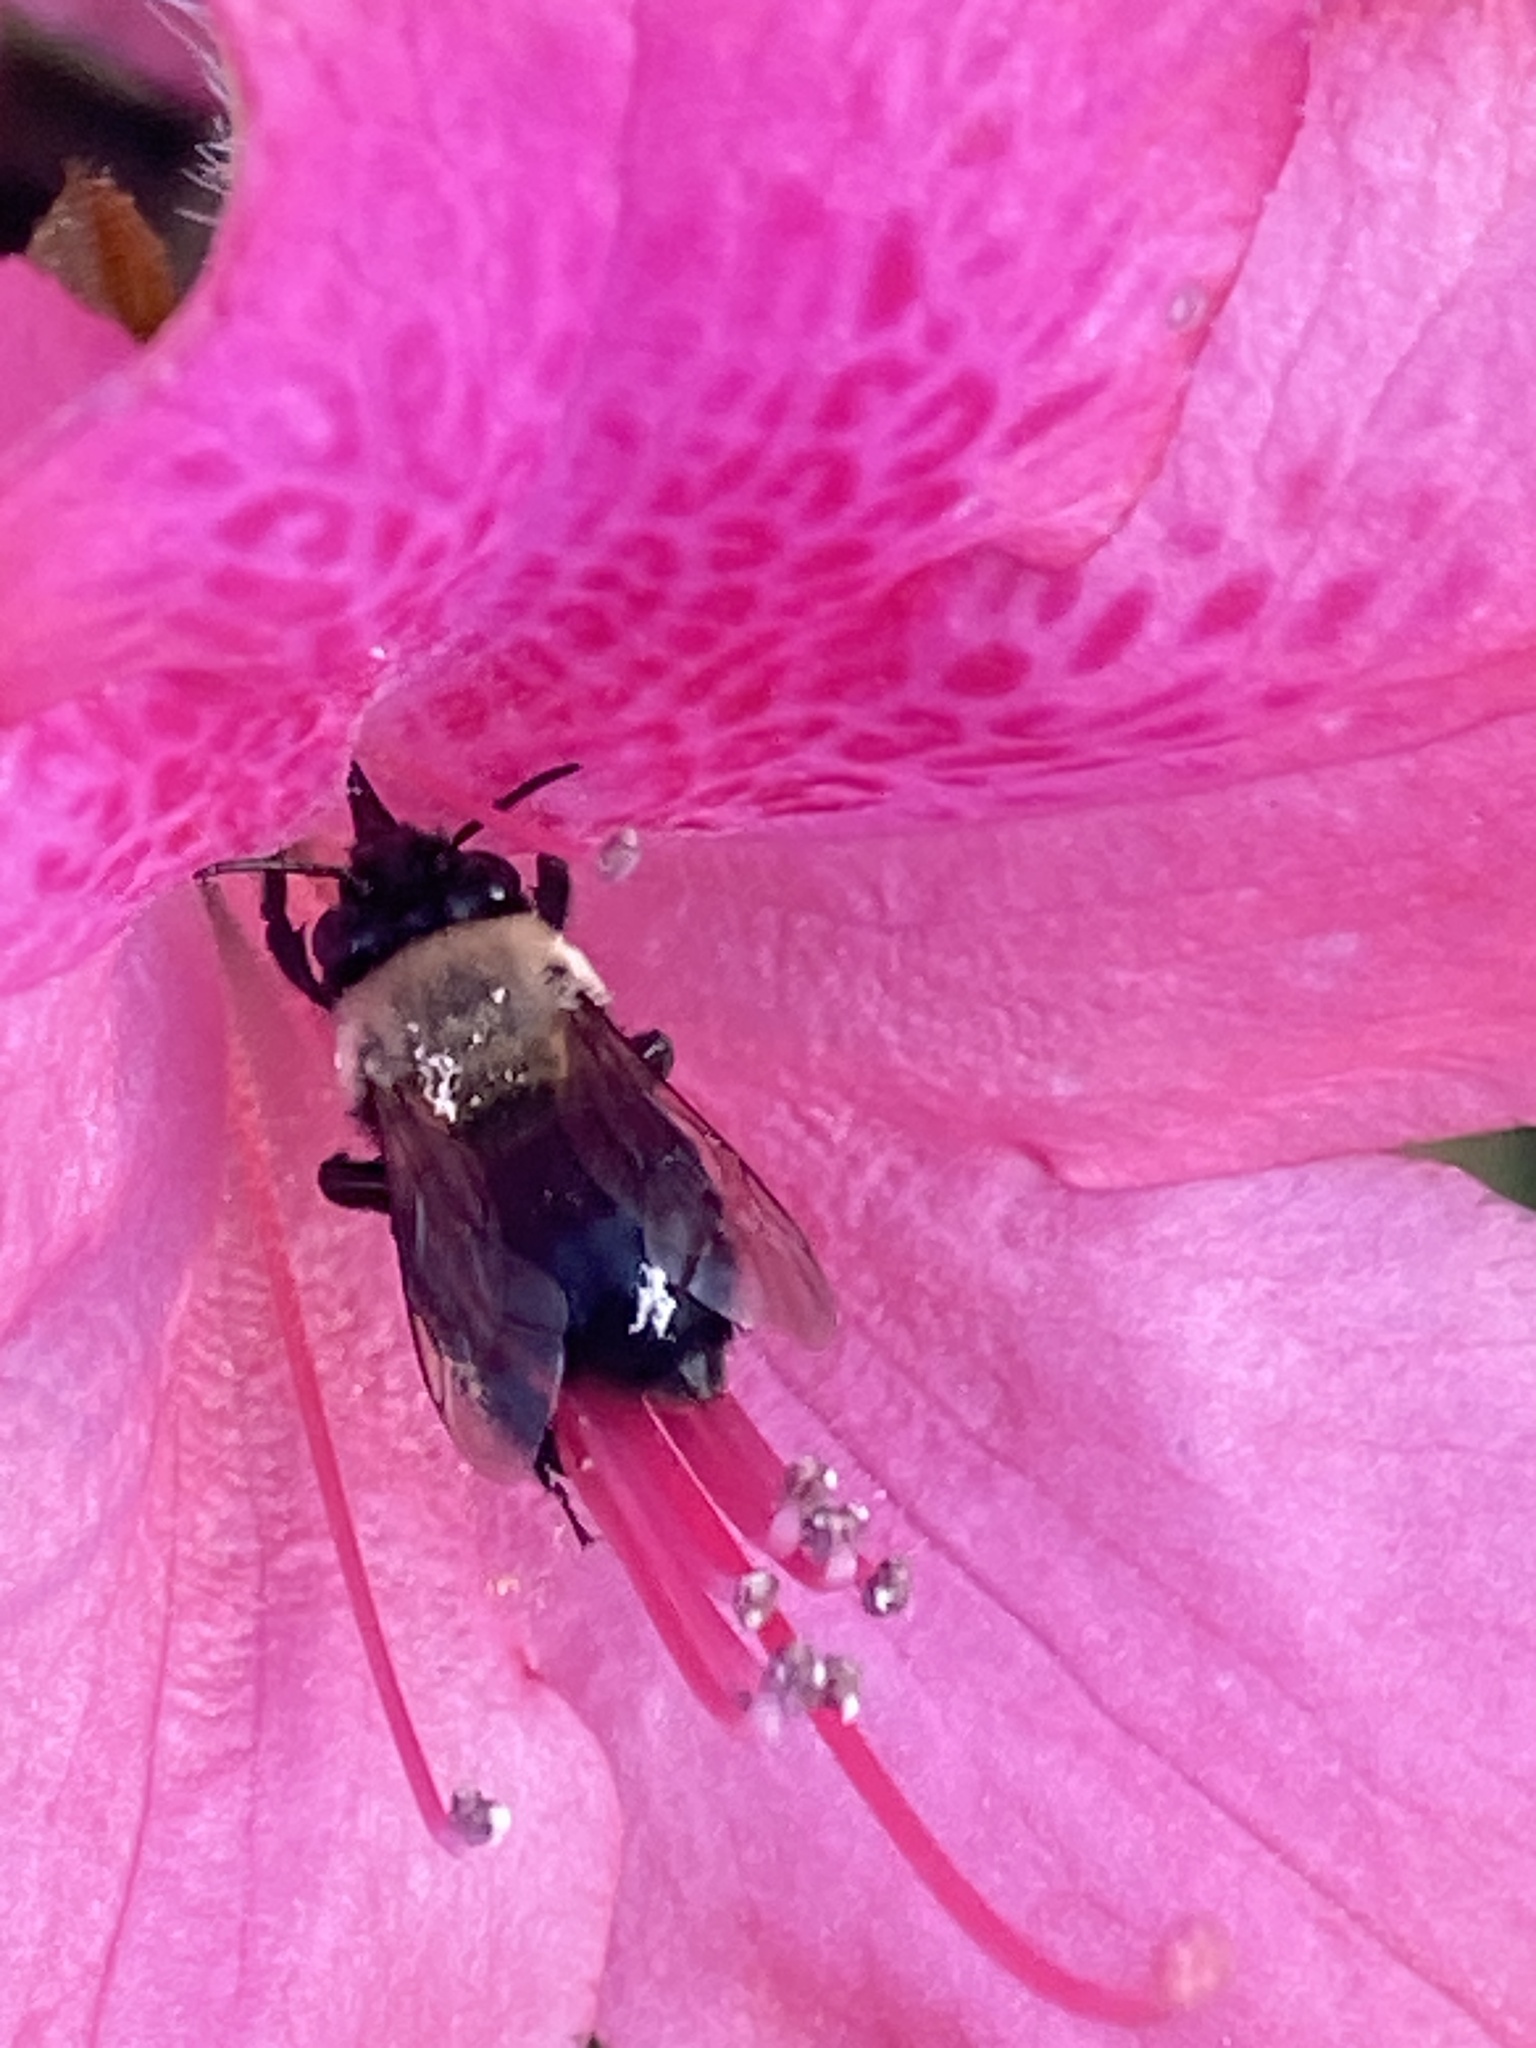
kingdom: Animalia
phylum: Arthropoda
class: Insecta
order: Hymenoptera
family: Apidae
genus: Habropoda
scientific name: Habropoda laboriosa
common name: Southeastern blueberry bee
